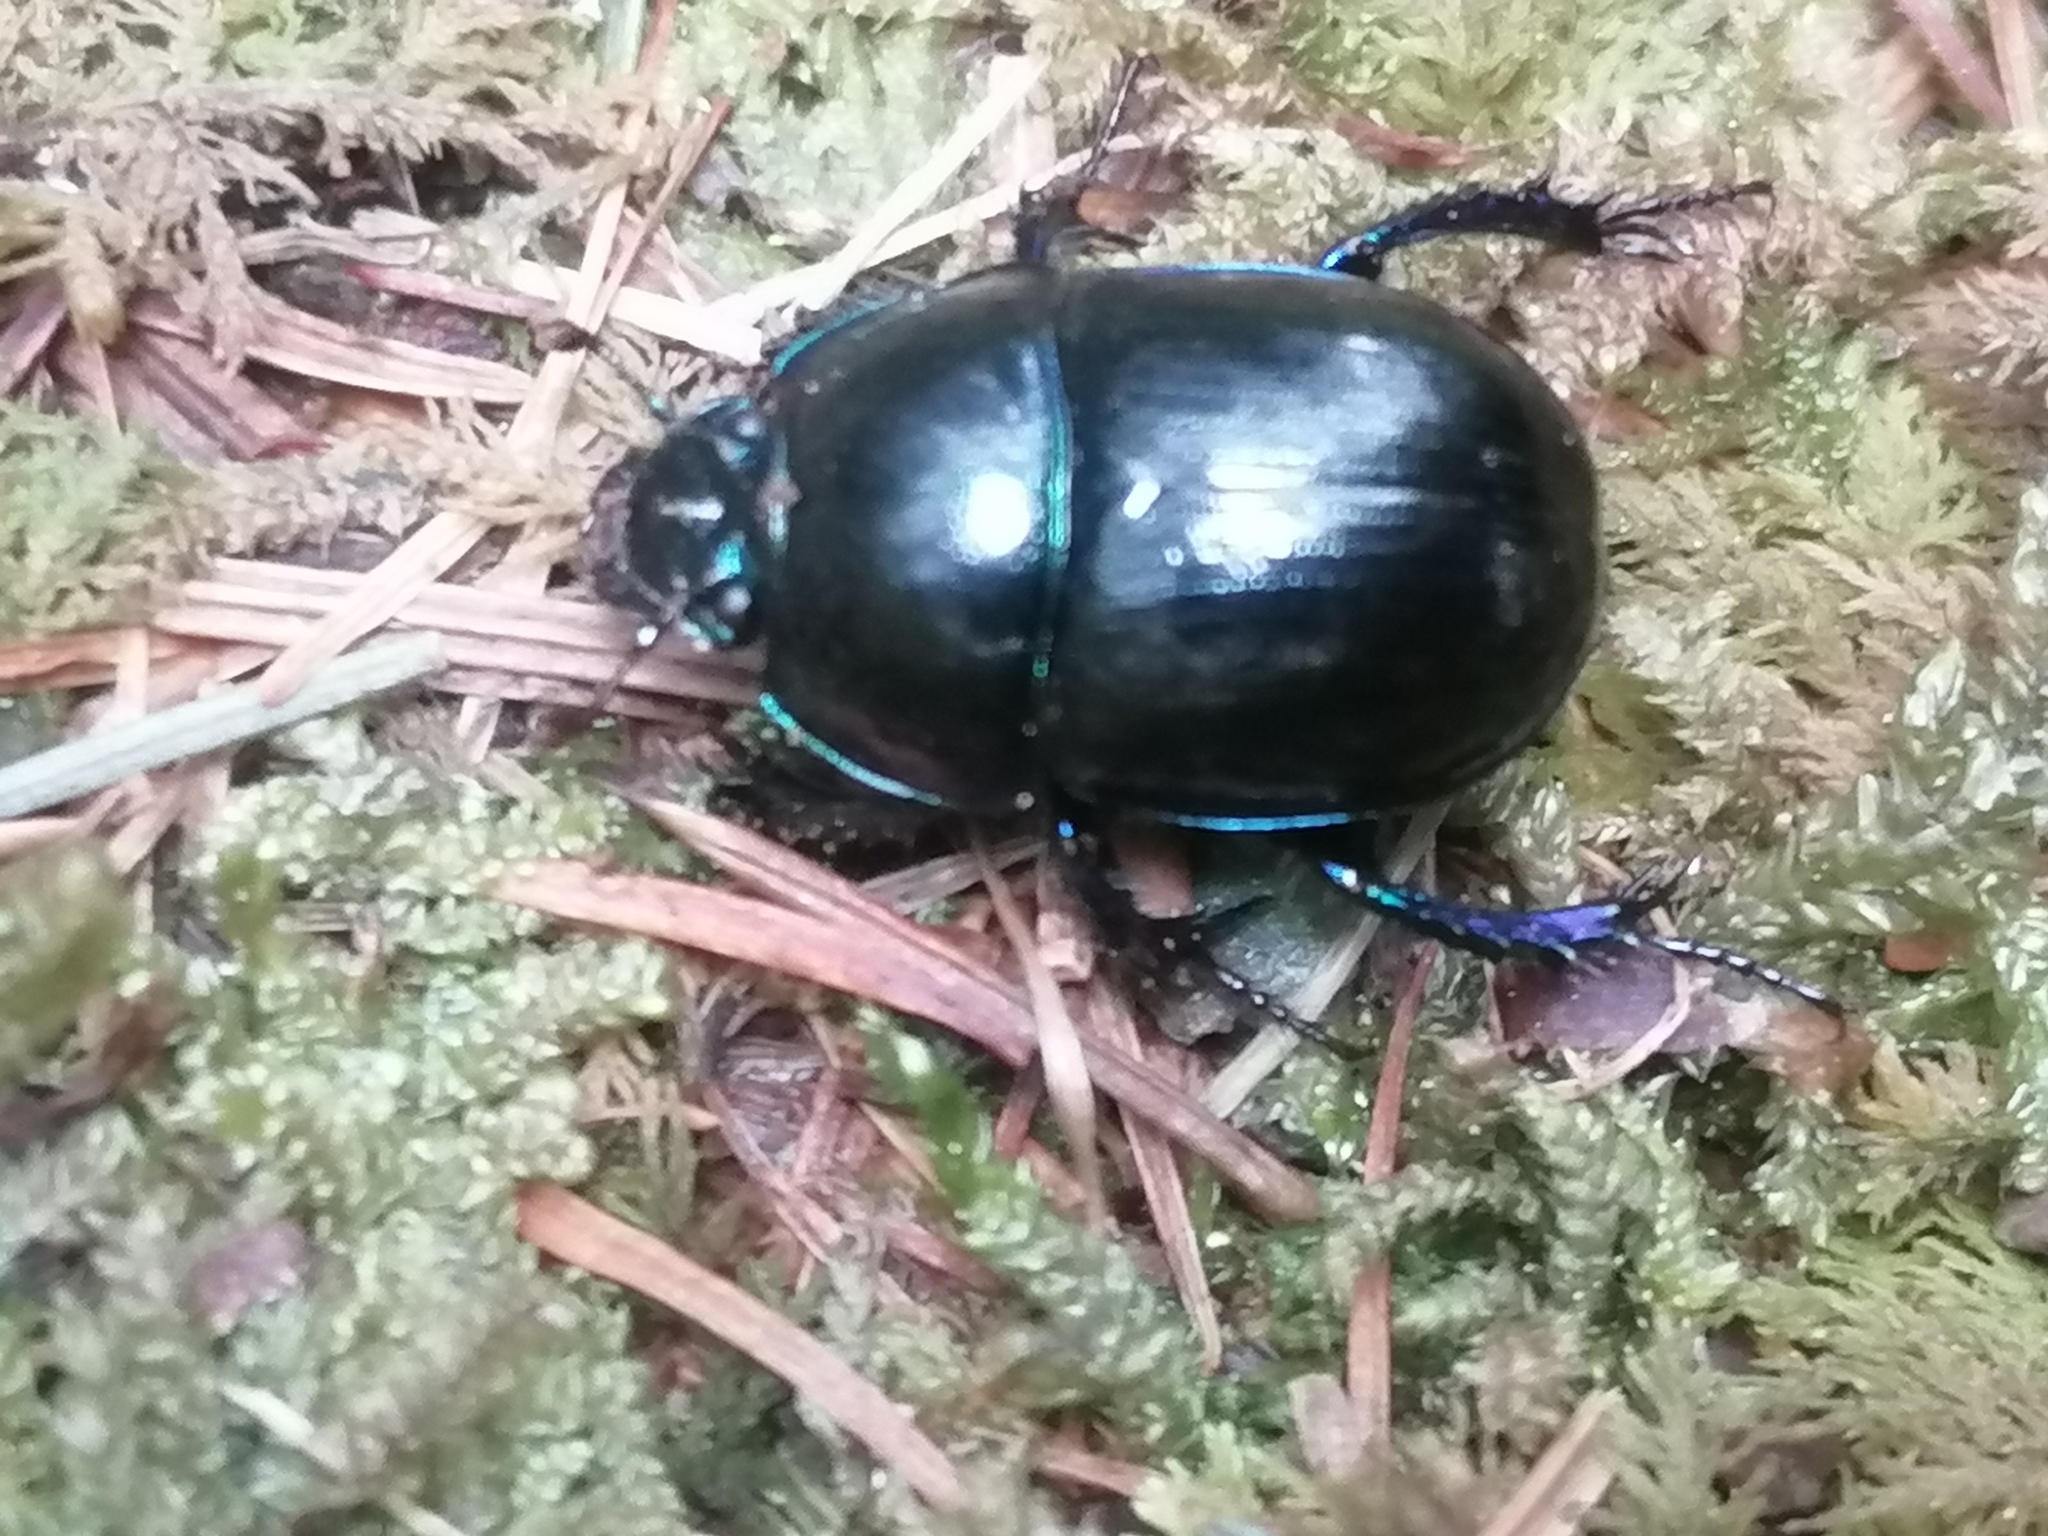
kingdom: Animalia
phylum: Arthropoda
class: Insecta
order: Coleoptera
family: Geotrupidae
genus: Anoplotrupes
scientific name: Anoplotrupes stercorosus
